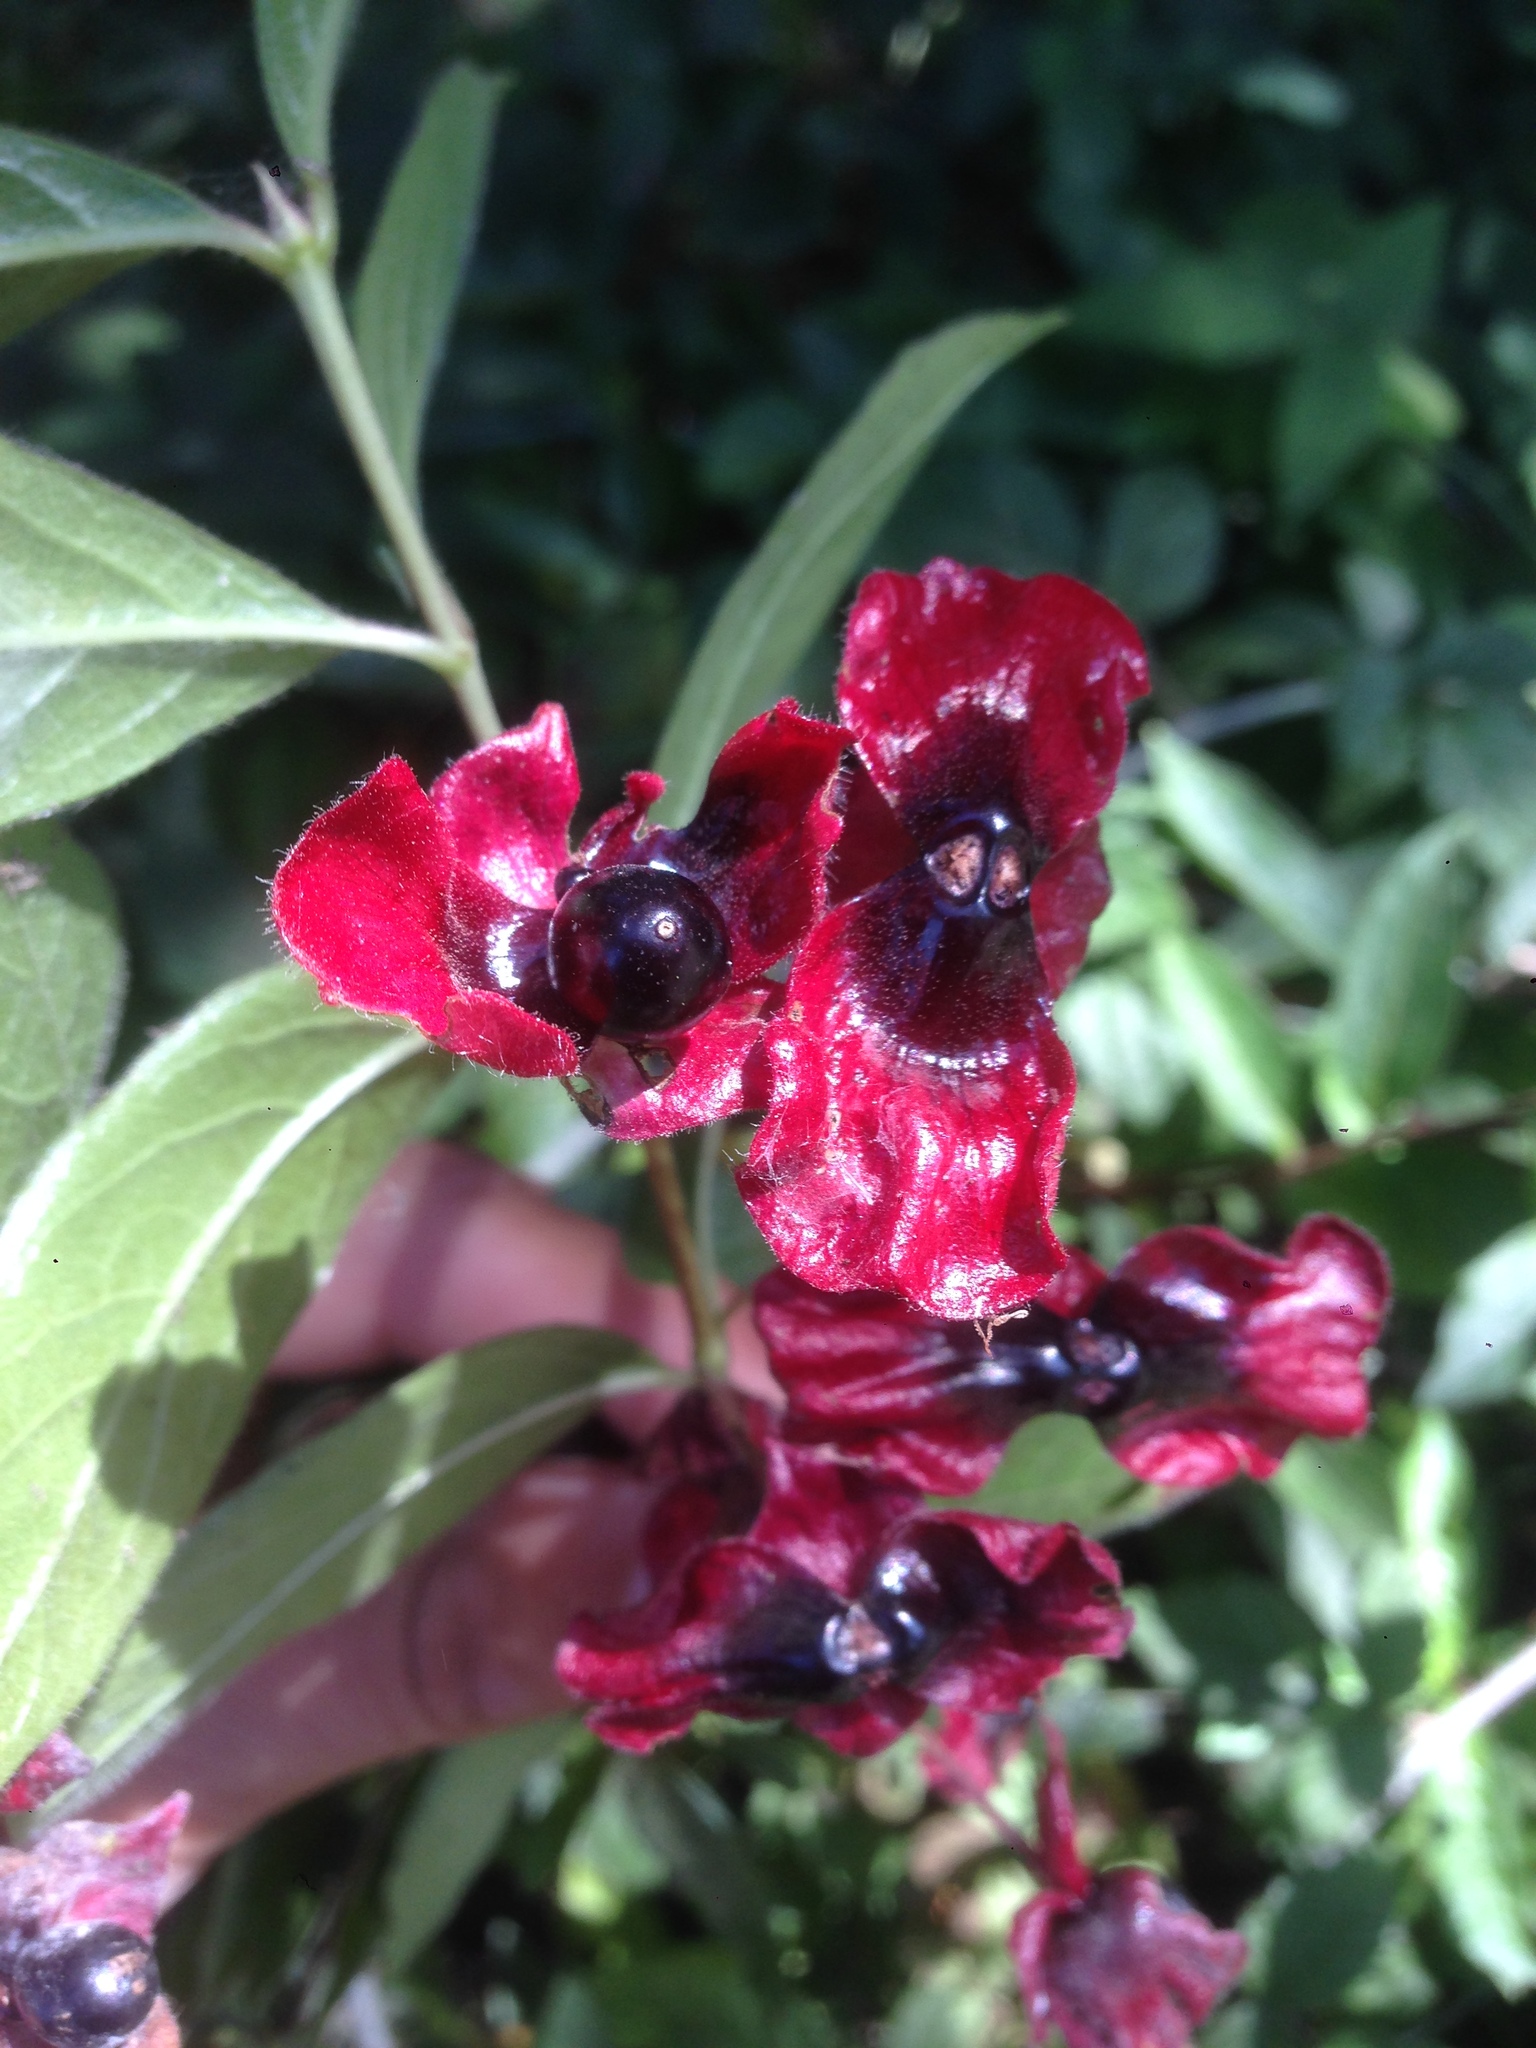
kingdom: Plantae
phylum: Tracheophyta
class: Magnoliopsida
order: Dipsacales
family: Caprifoliaceae
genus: Lonicera
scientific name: Lonicera involucrata
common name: Californian honeysuckle
